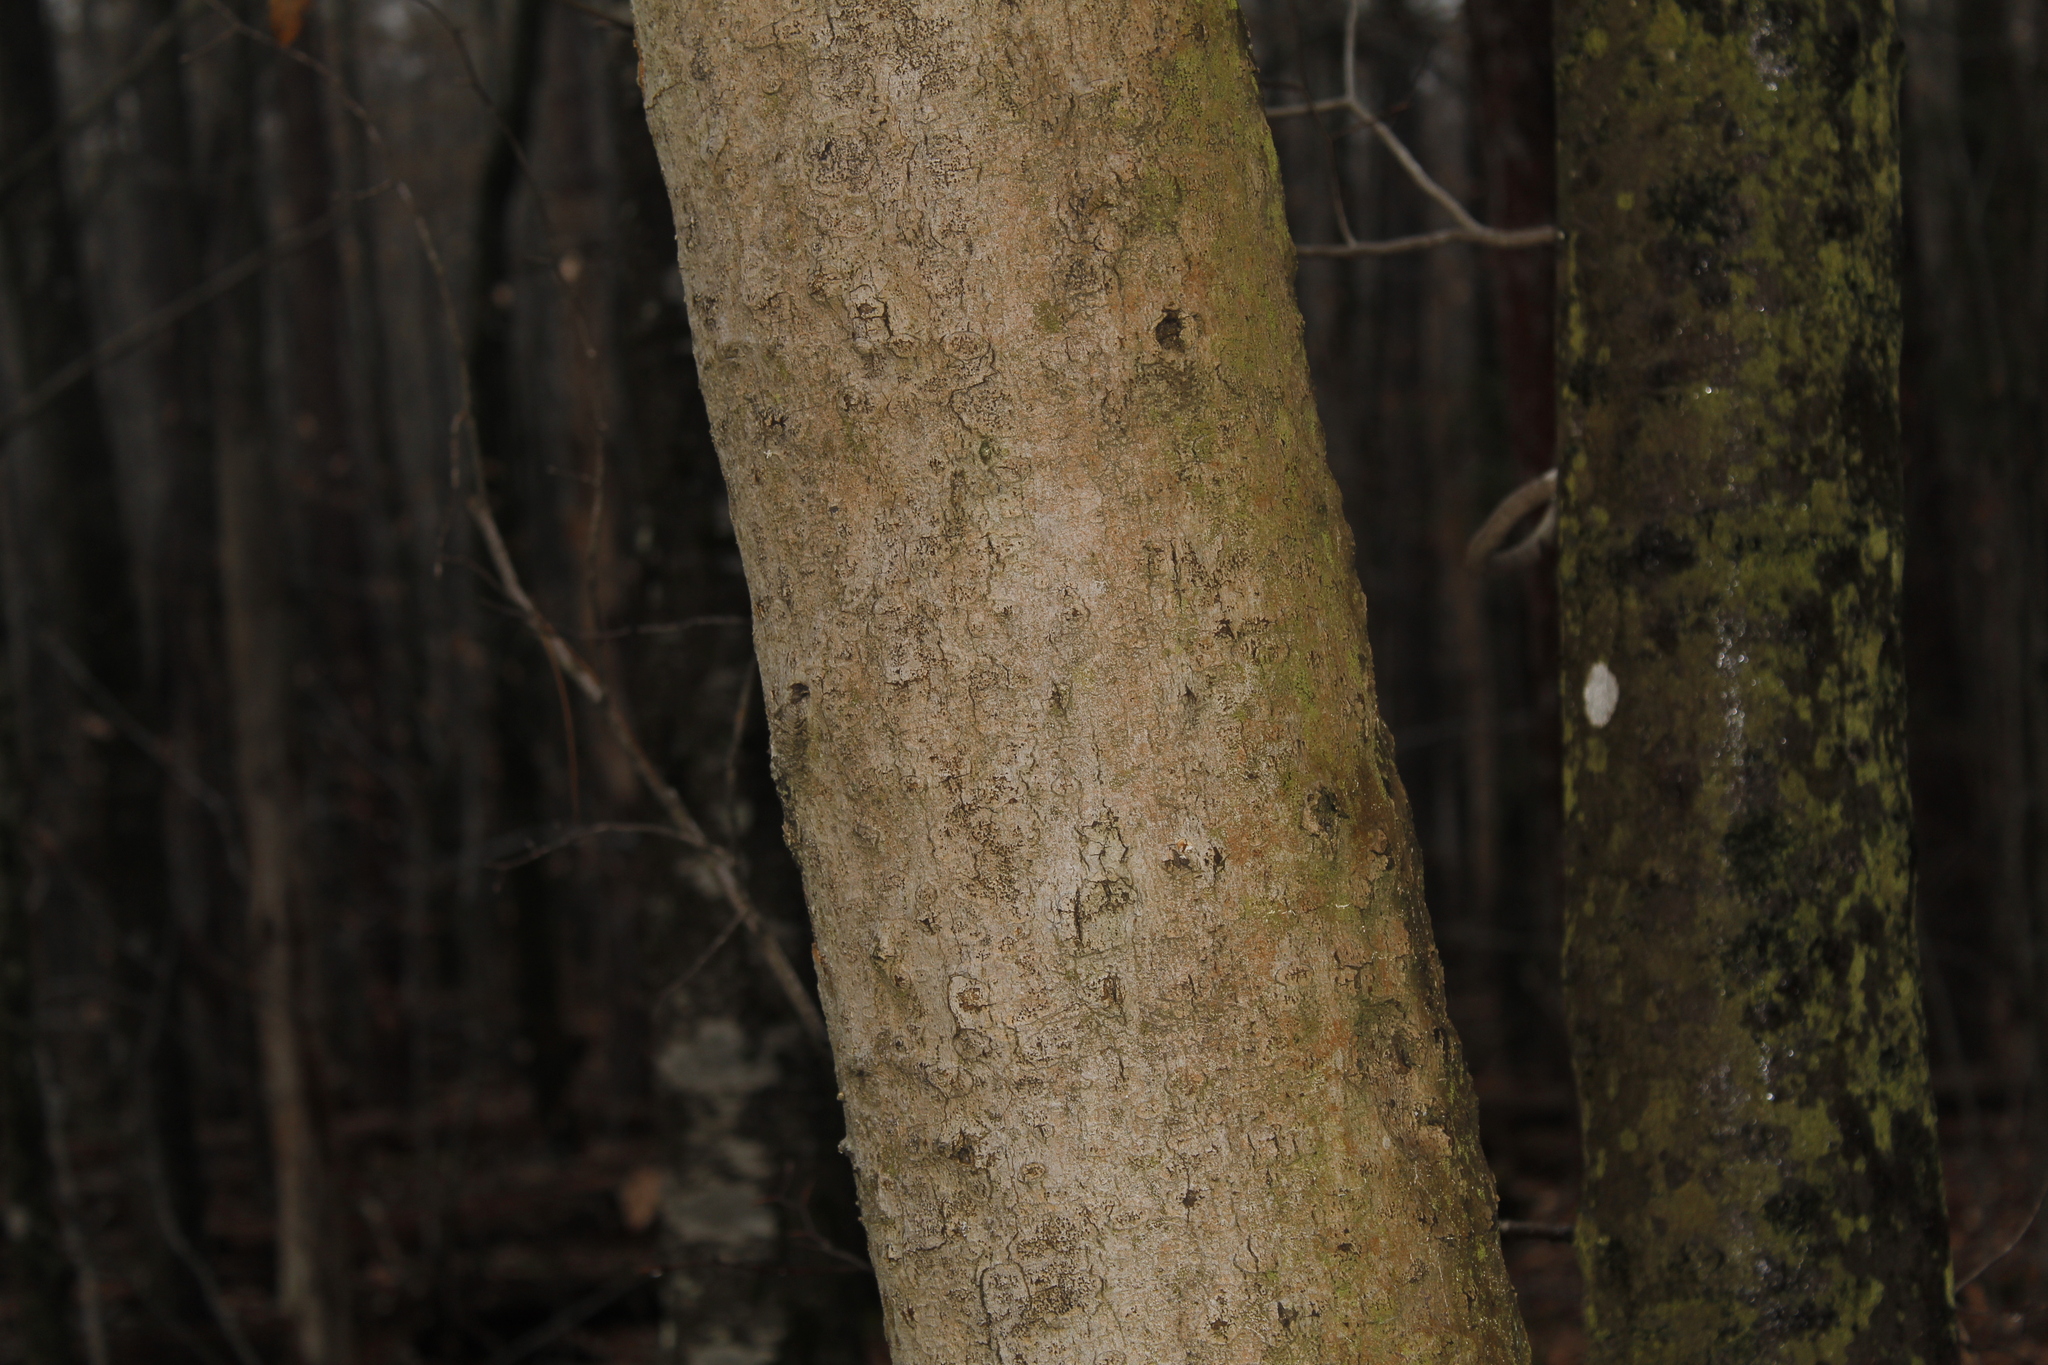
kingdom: Fungi
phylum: Ascomycota
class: Sordariomycetes
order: Hypocreales
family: Nectriaceae
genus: Neonectria
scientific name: Neonectria faginata
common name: Beech bark canker
